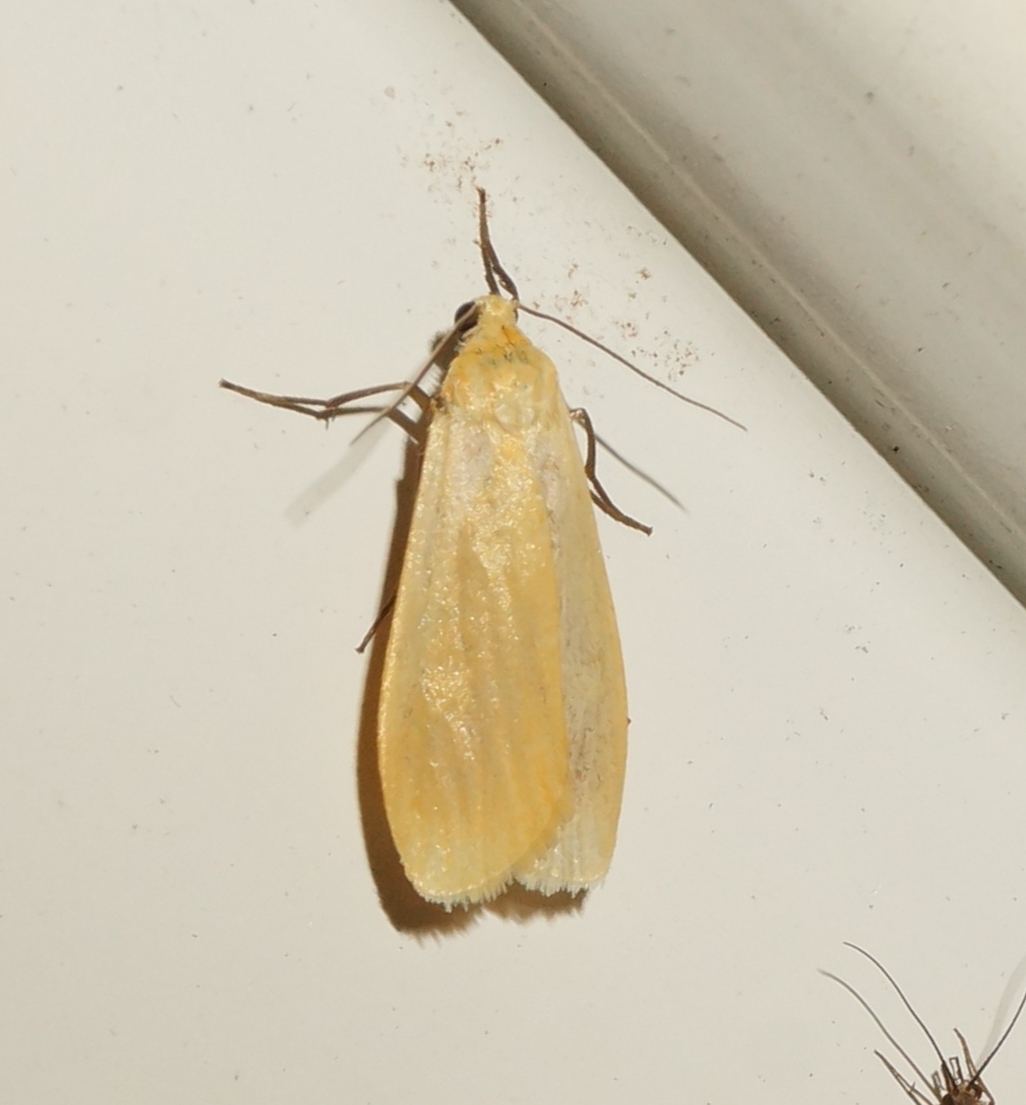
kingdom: Animalia
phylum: Arthropoda
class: Insecta
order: Lepidoptera
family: Erebidae
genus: Wittia
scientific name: Wittia sororcula
